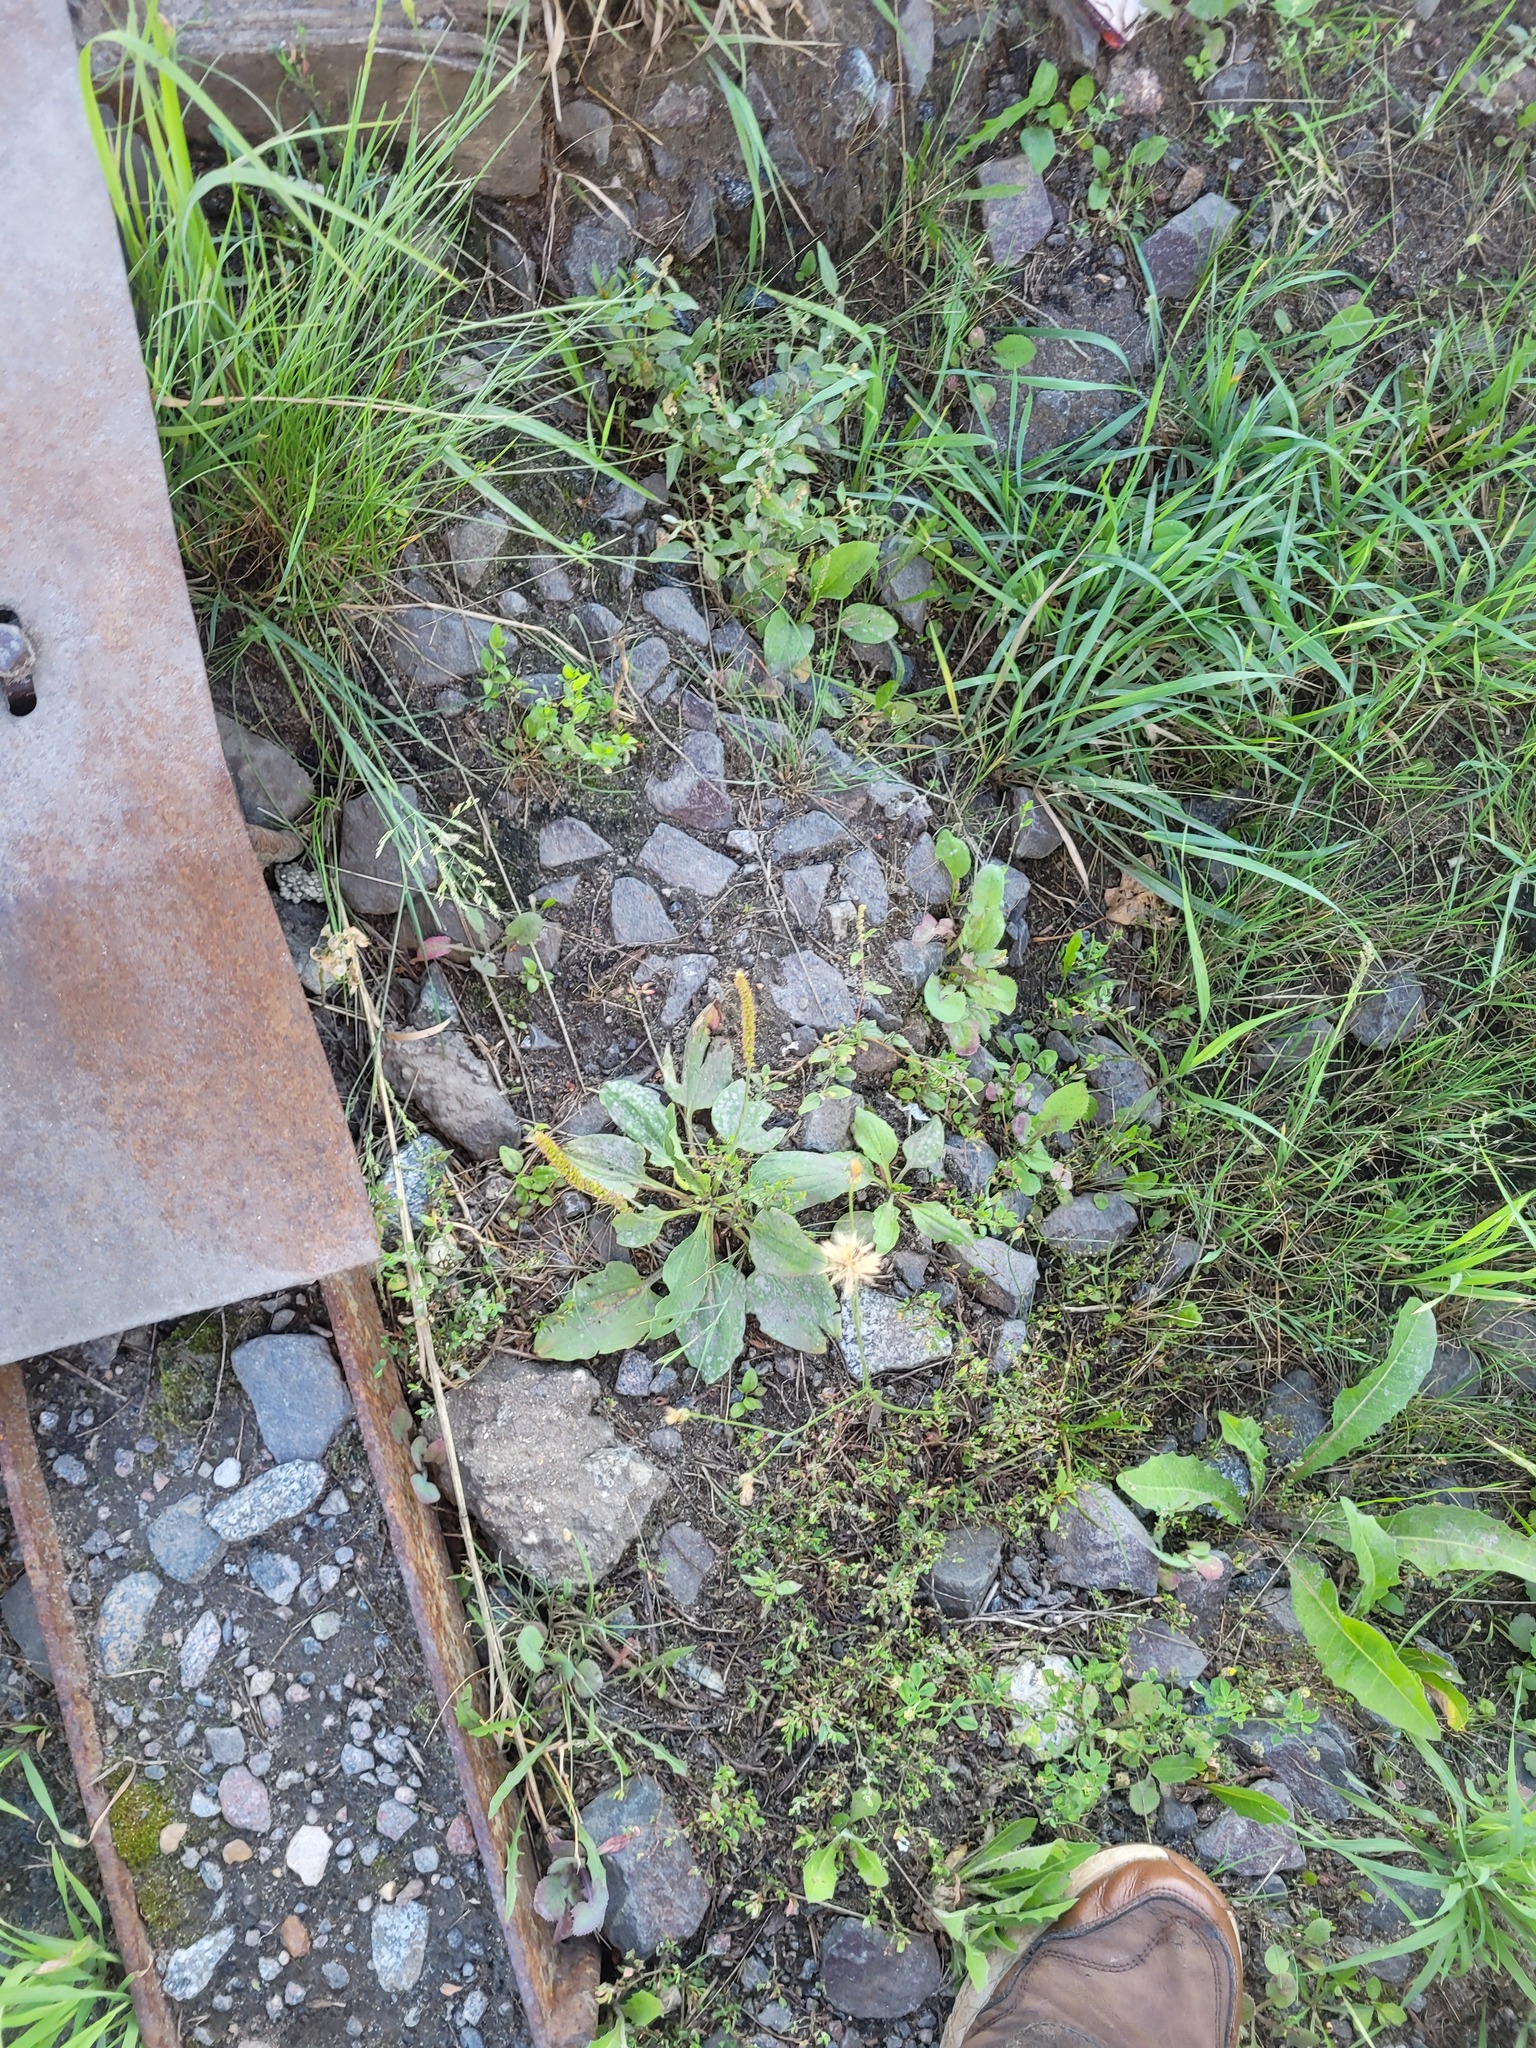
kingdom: Plantae
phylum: Tracheophyta
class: Magnoliopsida
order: Lamiales
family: Plantaginaceae
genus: Plantago
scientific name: Plantago major
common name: Common plantain
